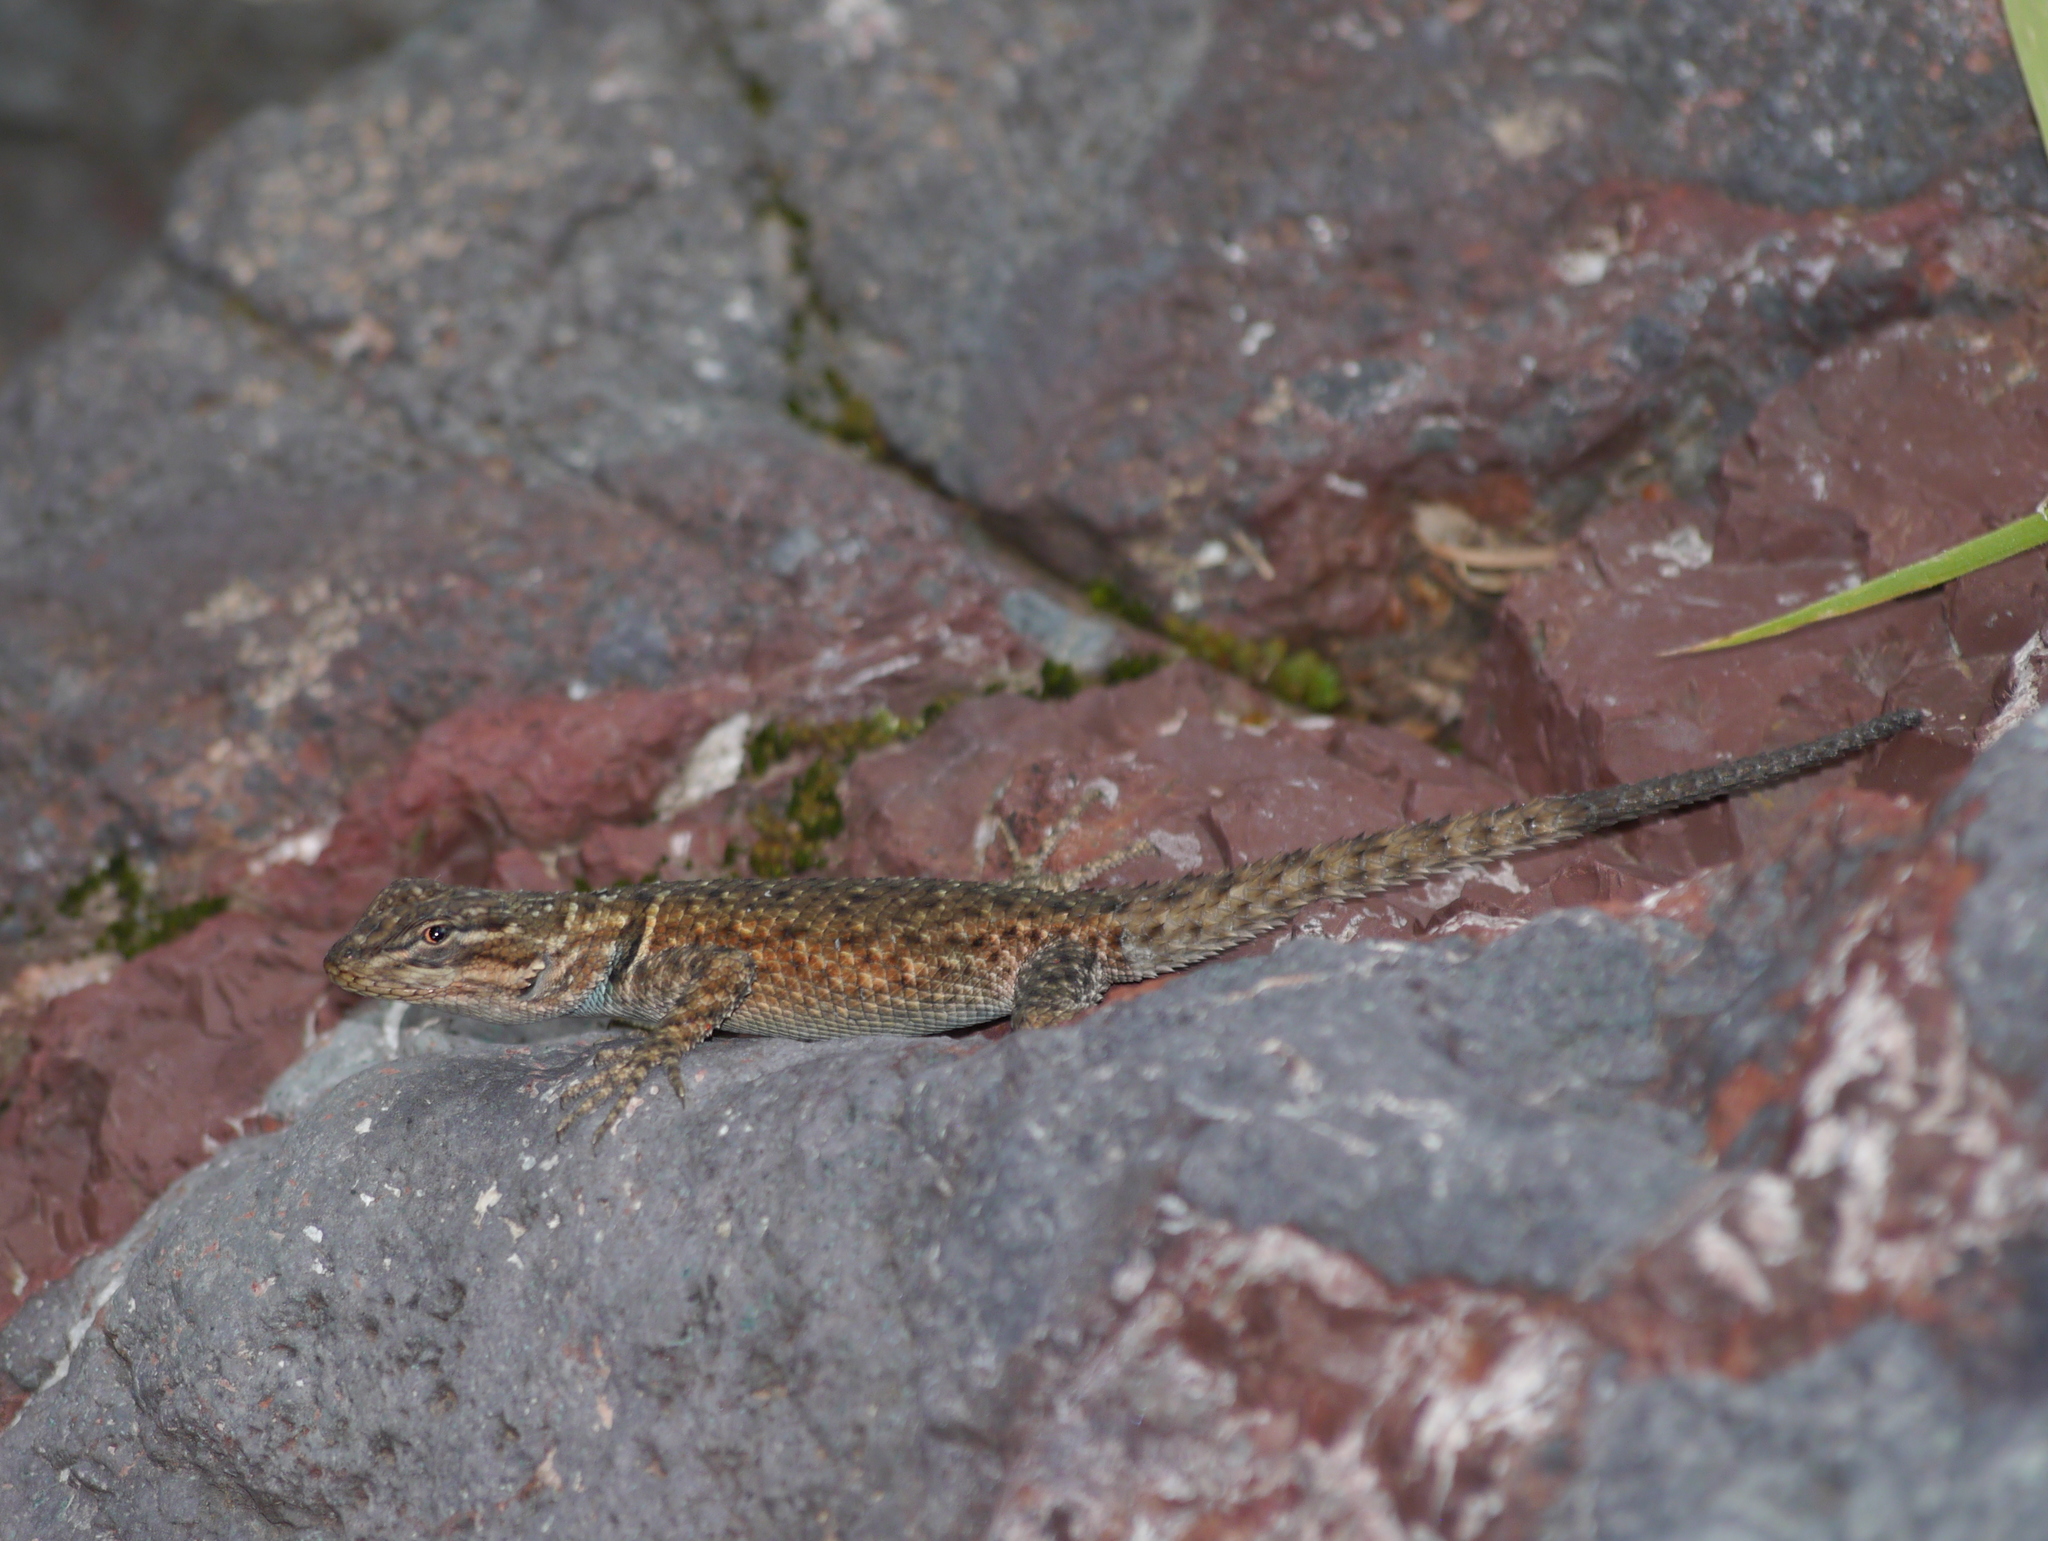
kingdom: Animalia
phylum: Chordata
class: Squamata
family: Phrynosomatidae
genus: Sceloporus
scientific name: Sceloporus jarrovii
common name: Yarrow's spiny lizard
